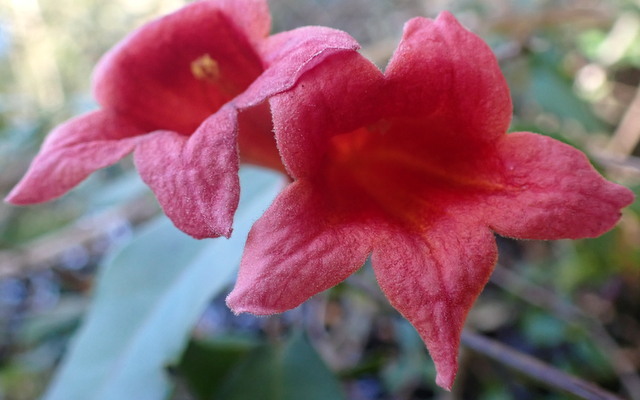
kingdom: Plantae
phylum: Tracheophyta
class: Magnoliopsida
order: Lamiales
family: Bignoniaceae
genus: Bignonia
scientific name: Bignonia capreolata
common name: Crossvine
